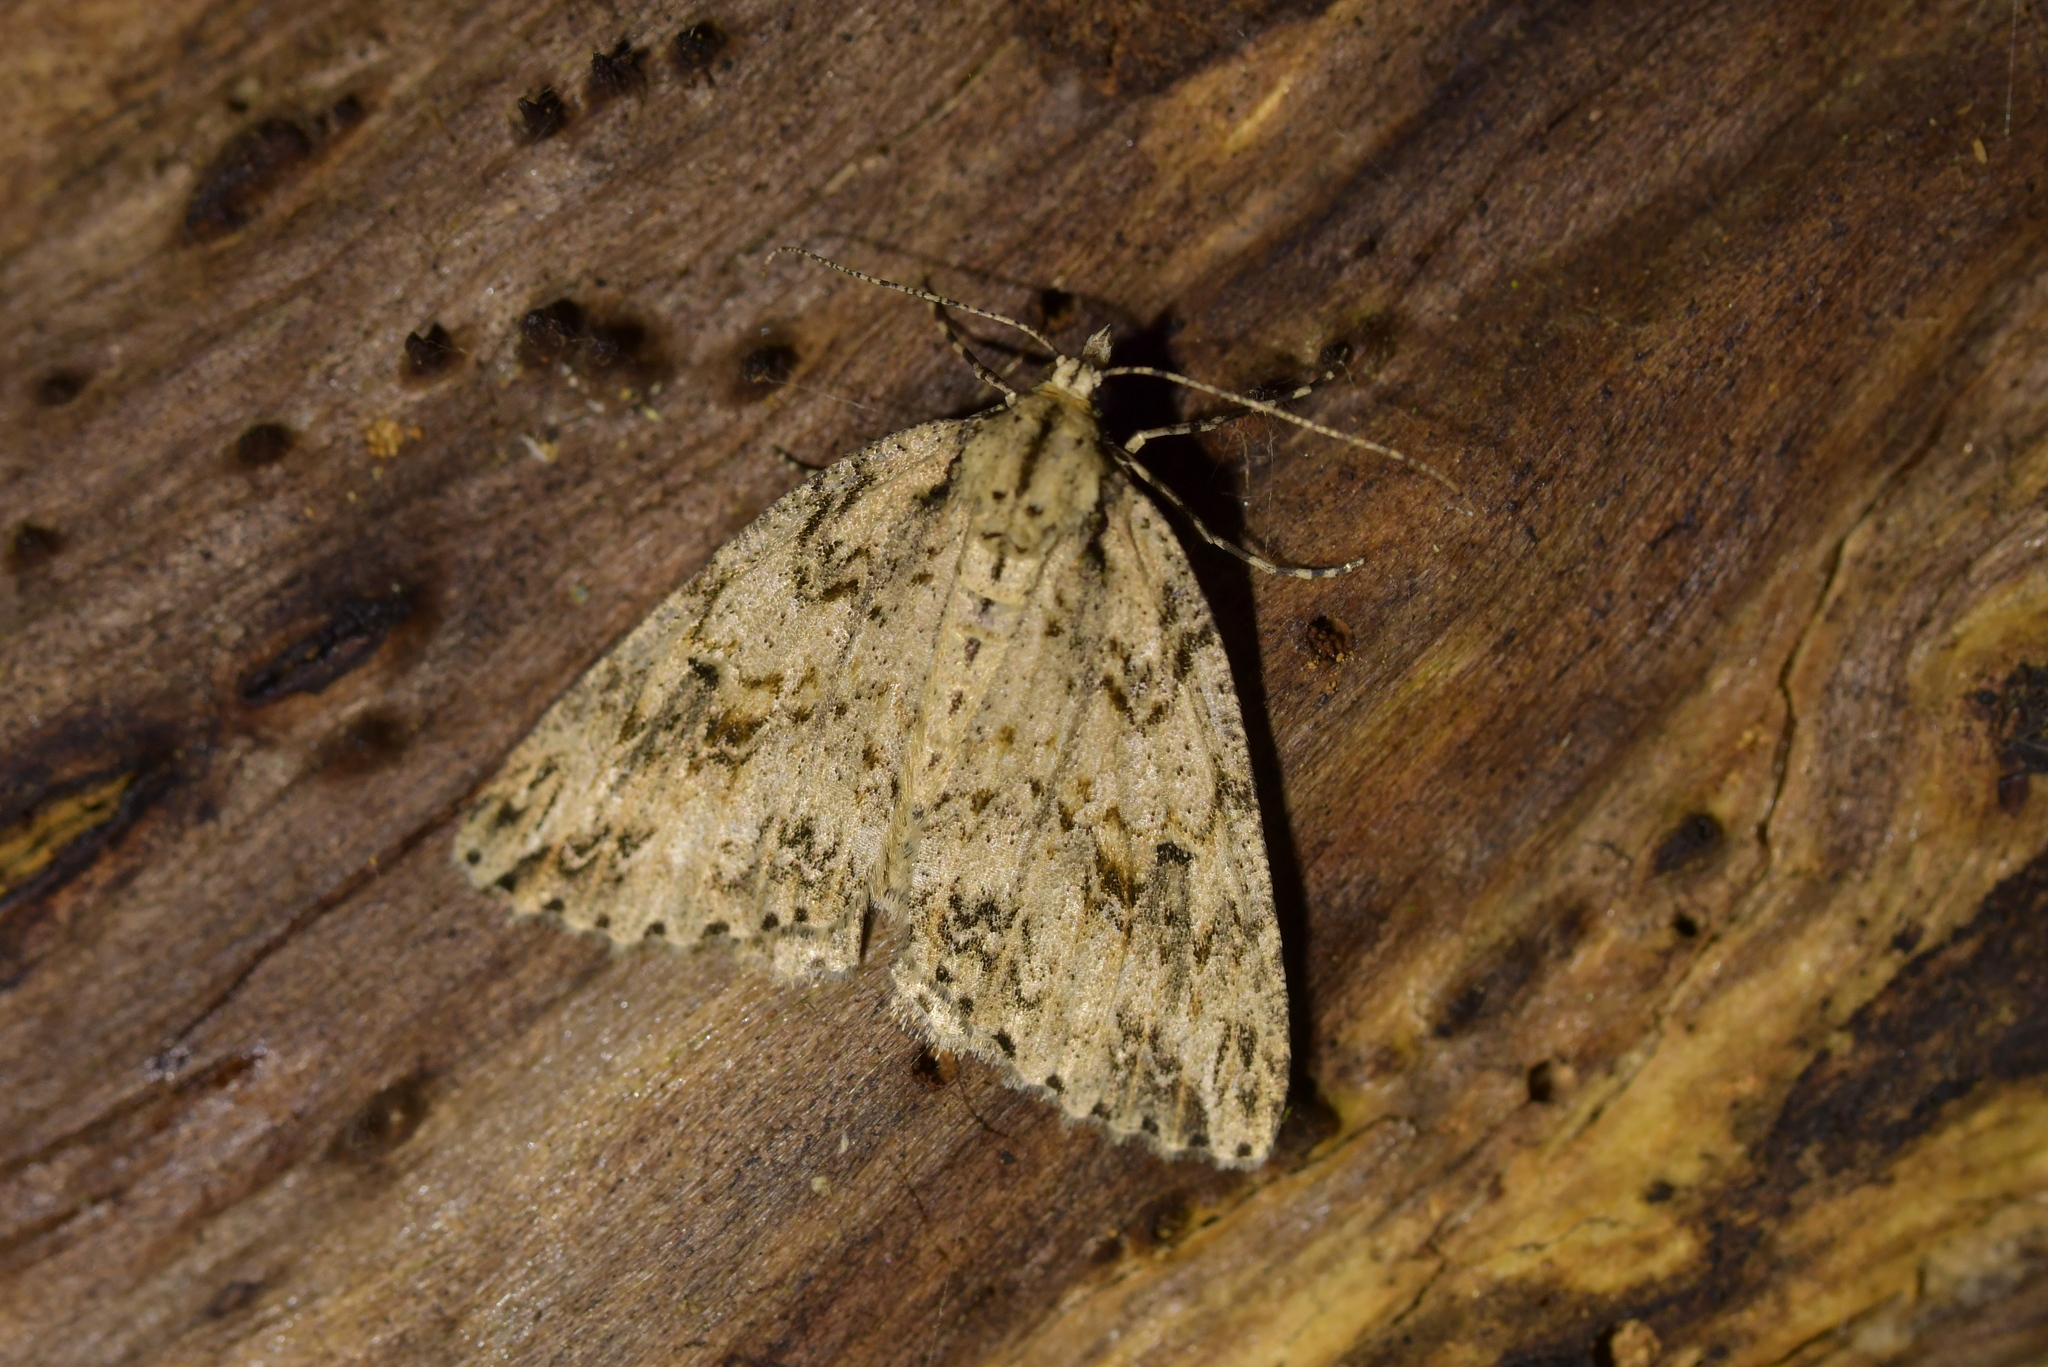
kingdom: Animalia
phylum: Arthropoda
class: Insecta
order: Lepidoptera
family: Geometridae
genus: Pseudocoremia
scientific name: Pseudocoremia rudisata
